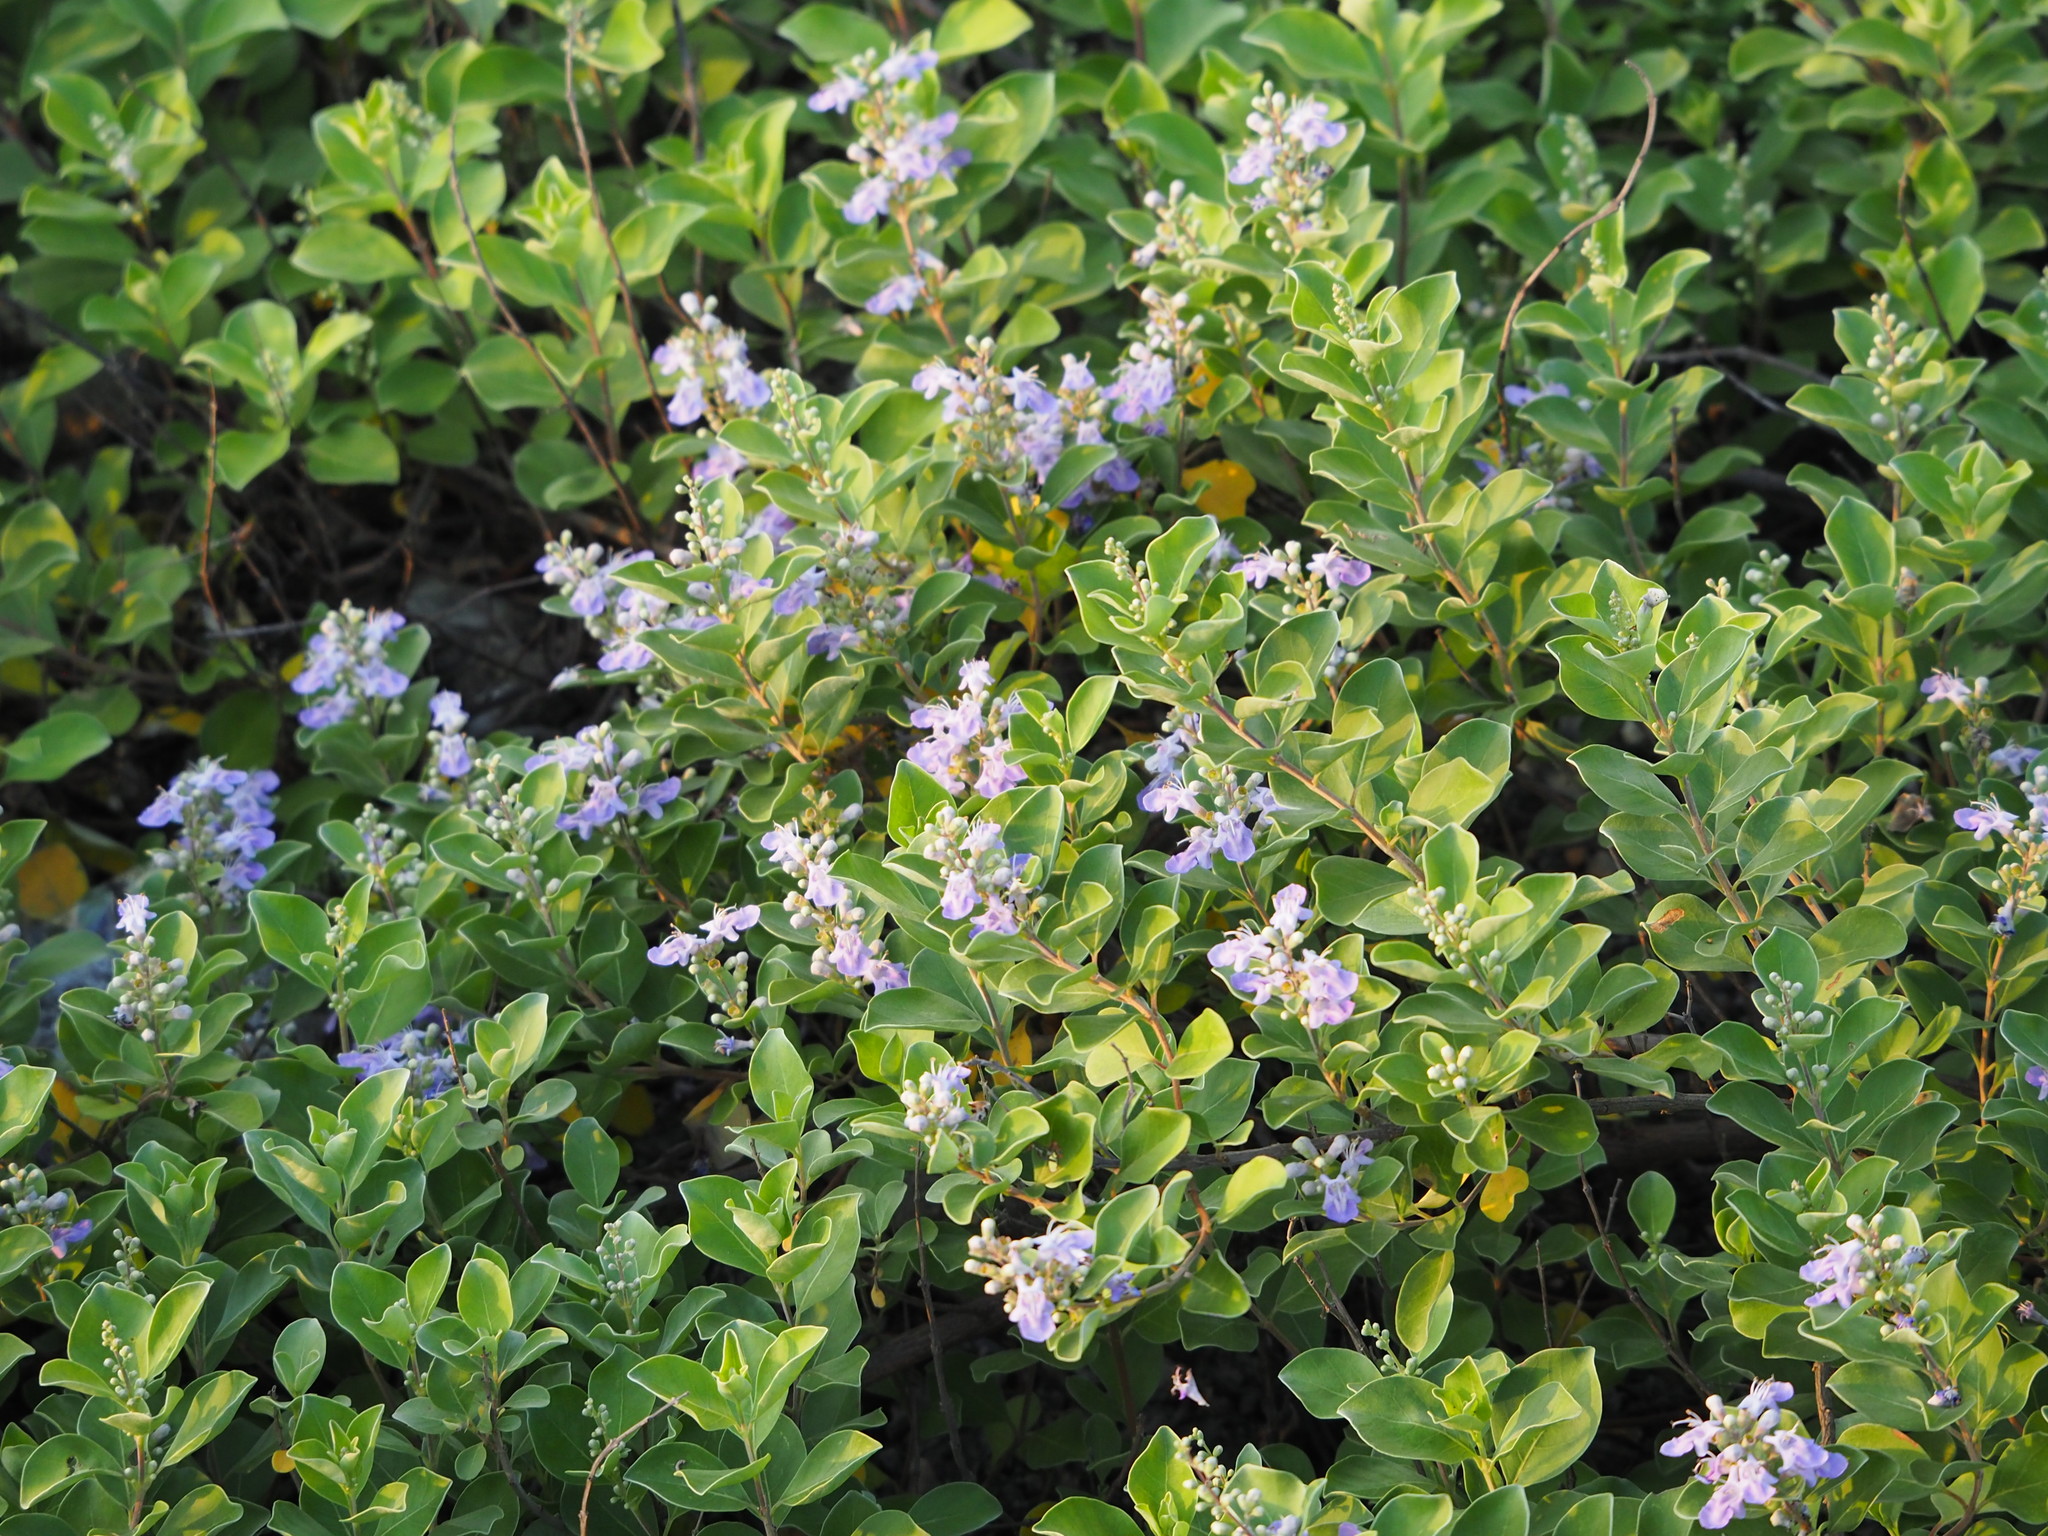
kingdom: Plantae
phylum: Tracheophyta
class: Magnoliopsida
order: Lamiales
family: Lamiaceae
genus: Vitex
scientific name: Vitex rotundifolia
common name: Beach vitex
